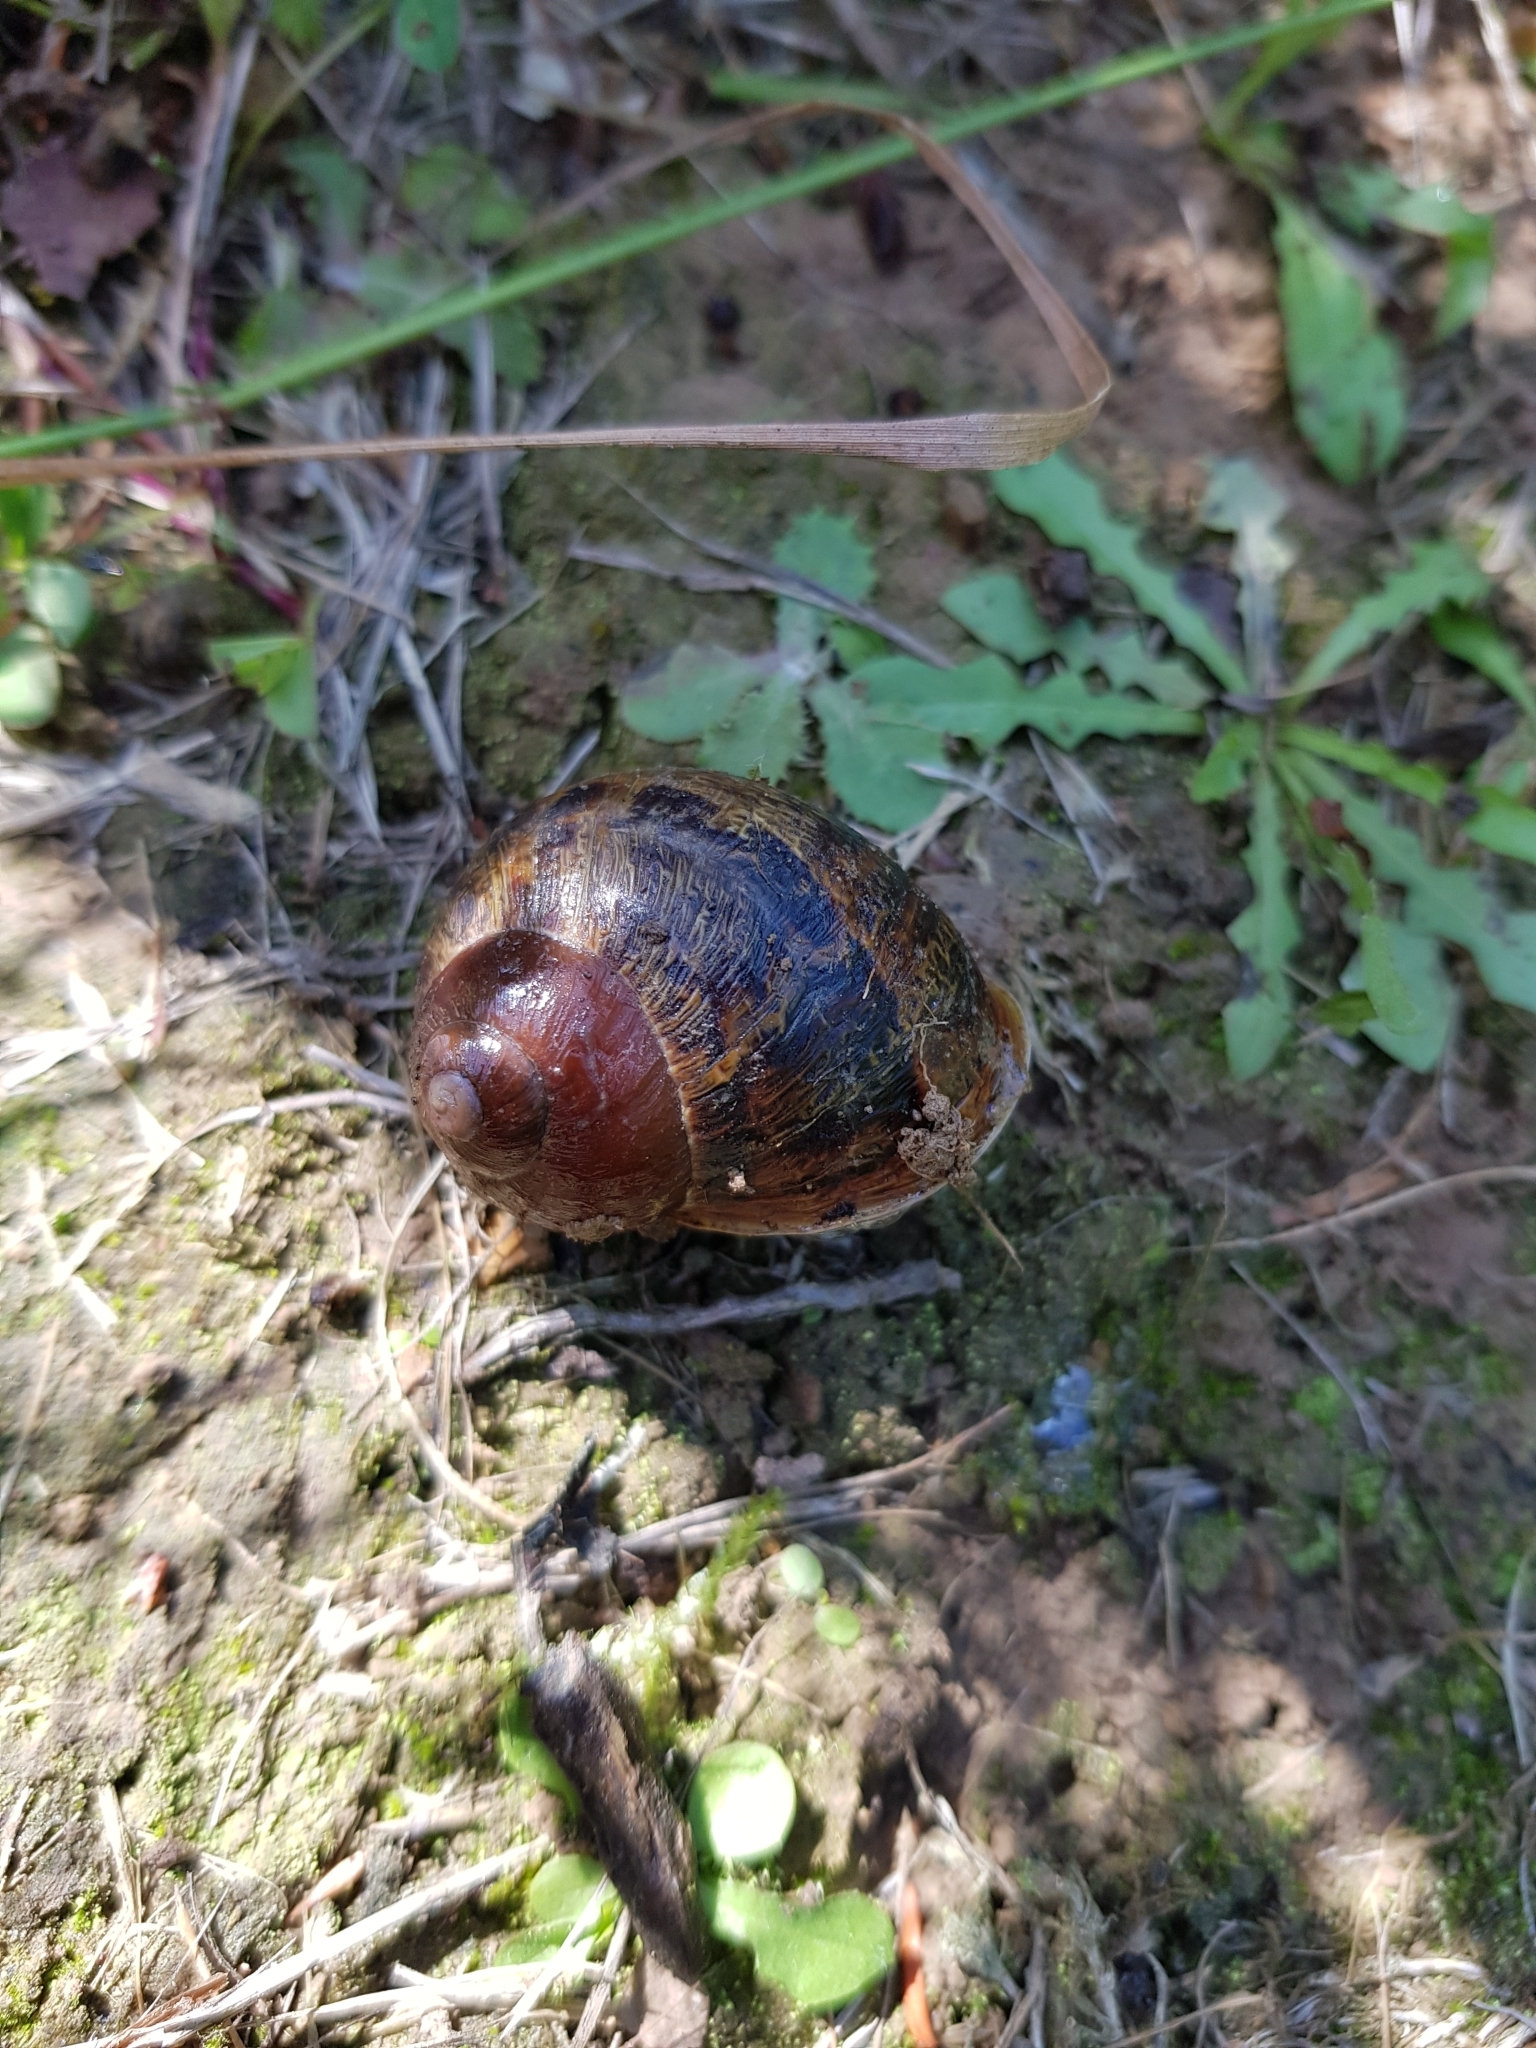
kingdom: Animalia
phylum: Mollusca
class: Gastropoda
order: Stylommatophora
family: Helicidae
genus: Cornu
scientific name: Cornu aspersum
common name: Brown garden snail
